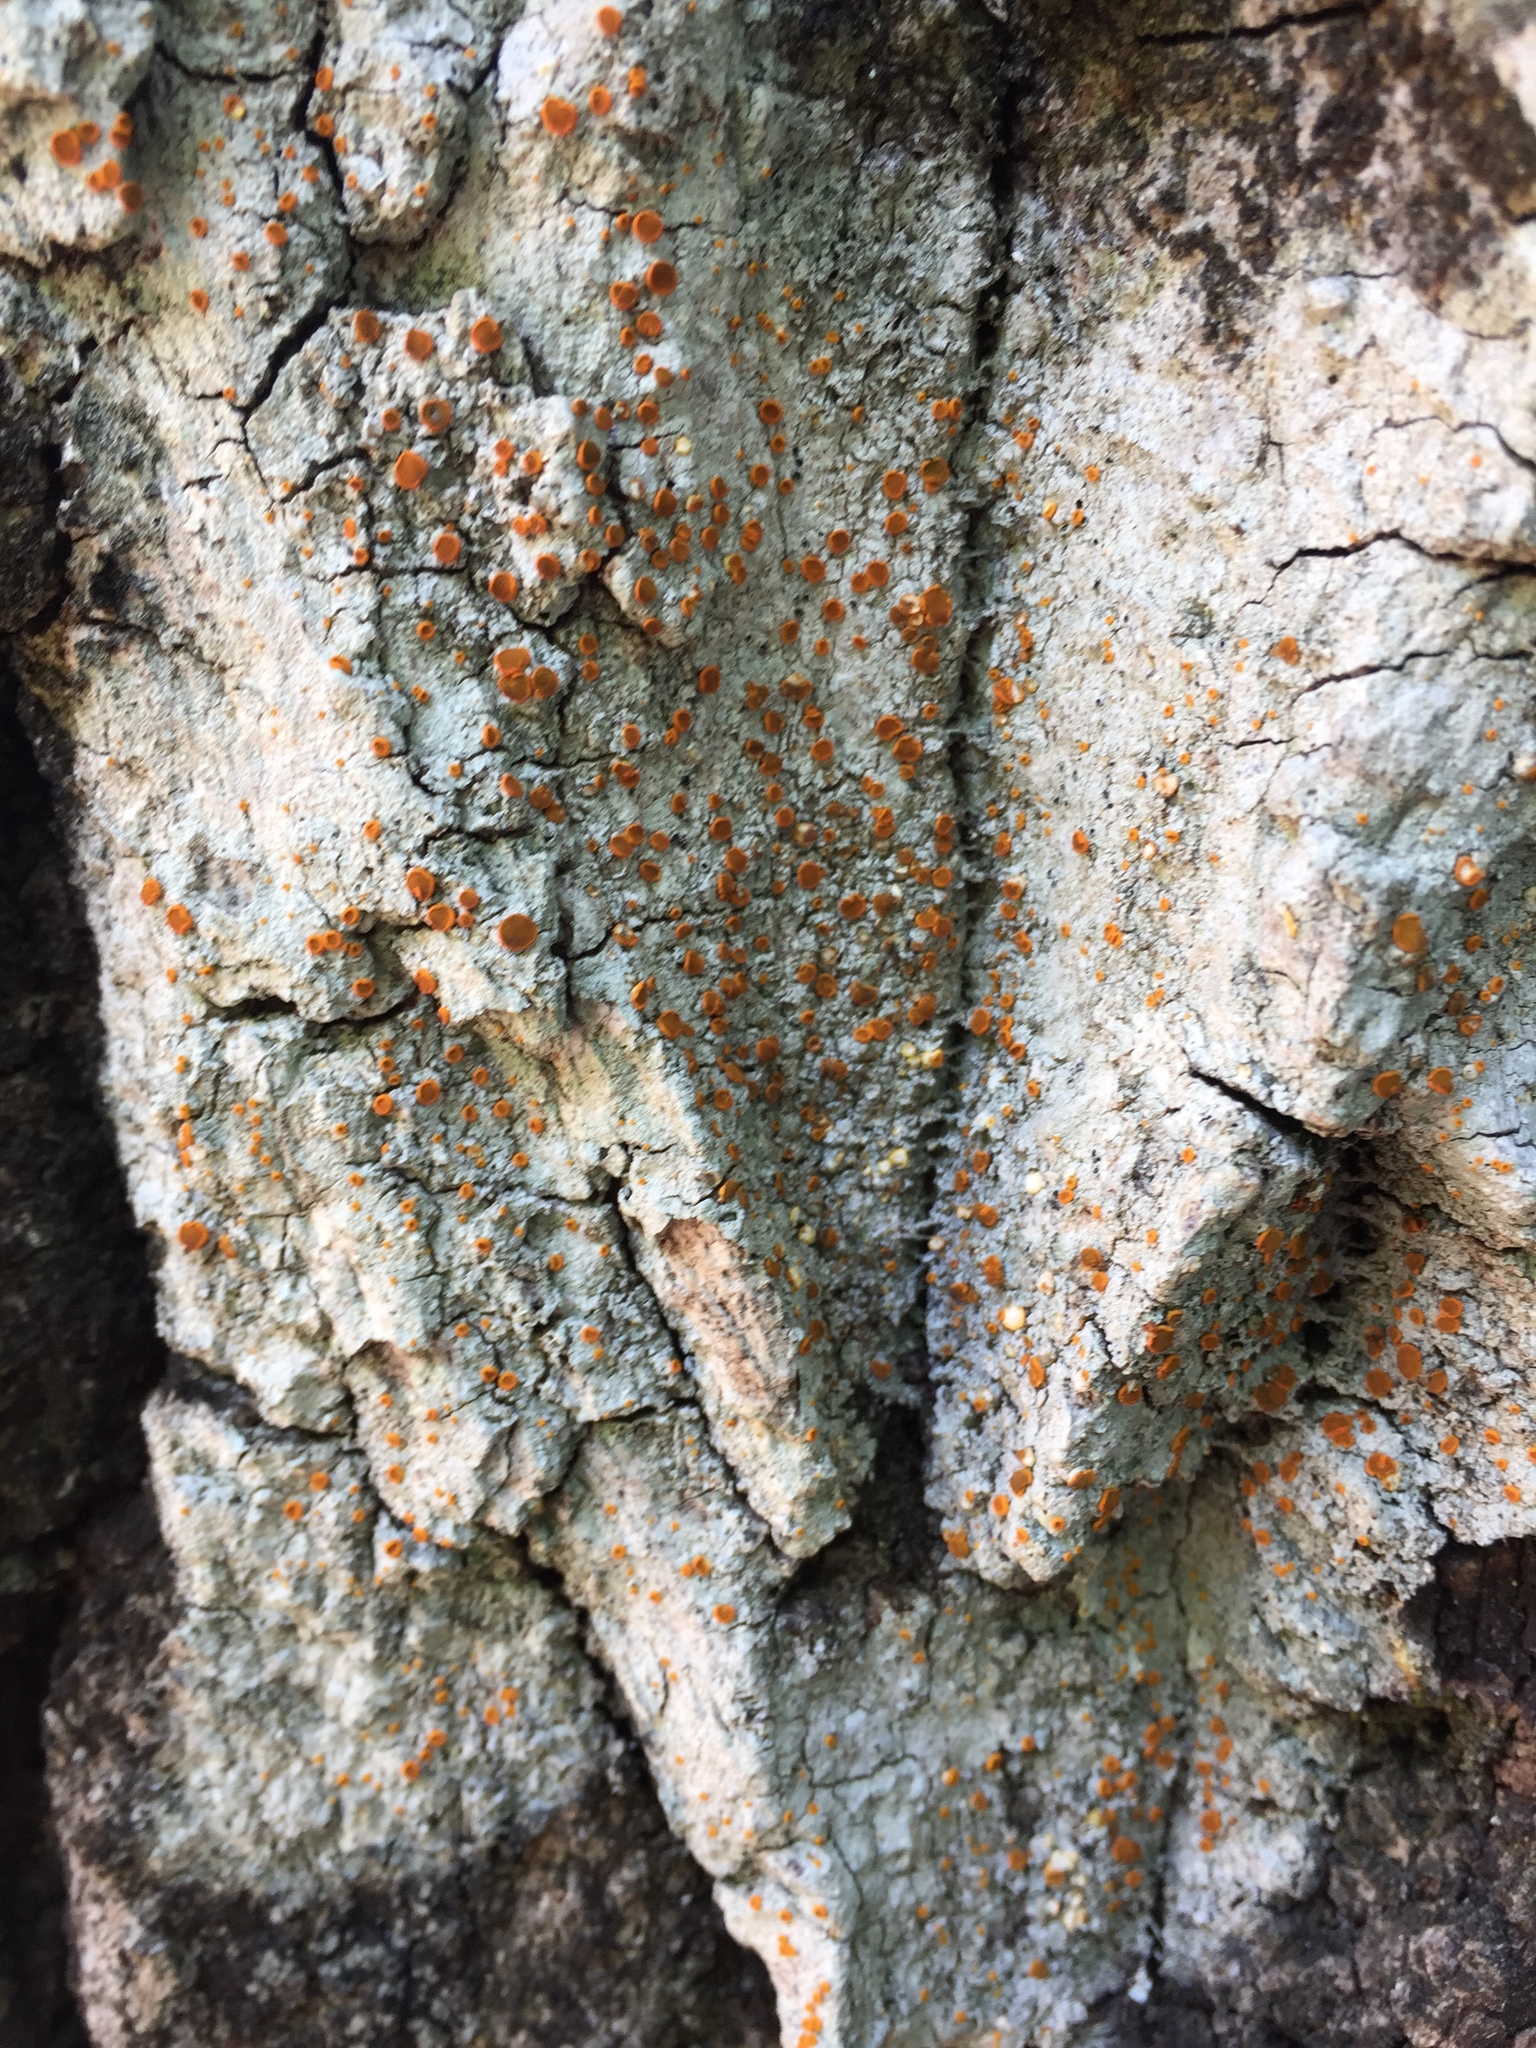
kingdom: Fungi
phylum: Ascomycota
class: Lecanoromycetes
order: Teloschistales
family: Brigantiaeaceae
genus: Brigantiaea
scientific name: Brigantiaea leucoxantha
